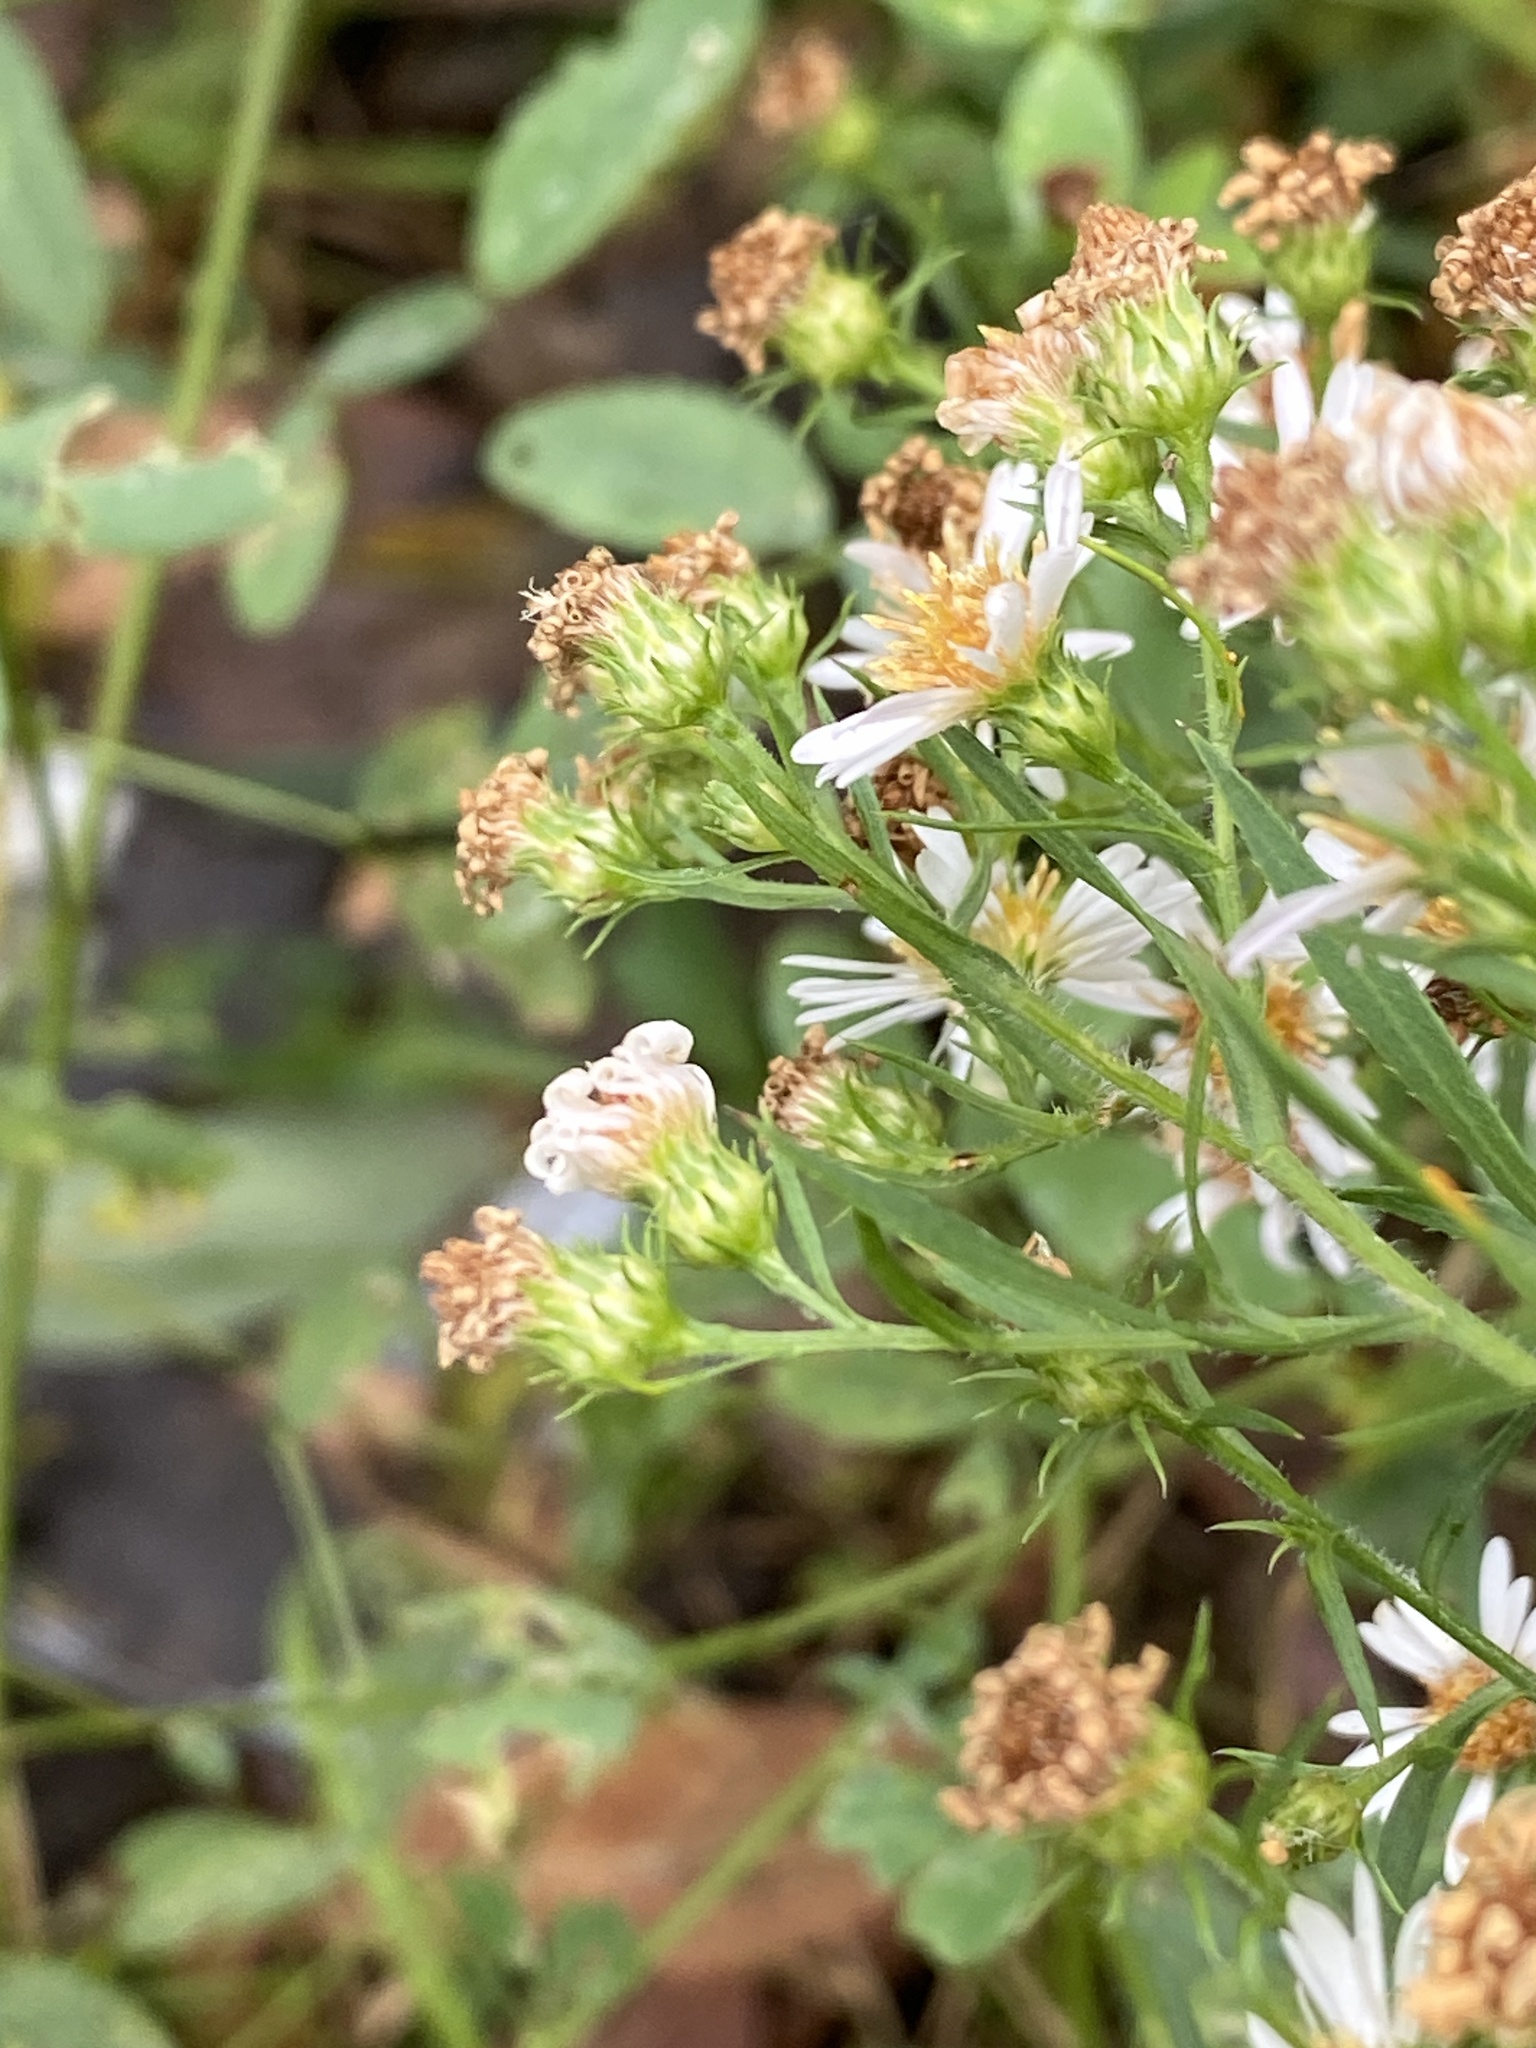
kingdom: Plantae
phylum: Tracheophyta
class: Magnoliopsida
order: Asterales
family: Asteraceae
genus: Symphyotrichum
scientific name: Symphyotrichum pilosum
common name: Awl aster
